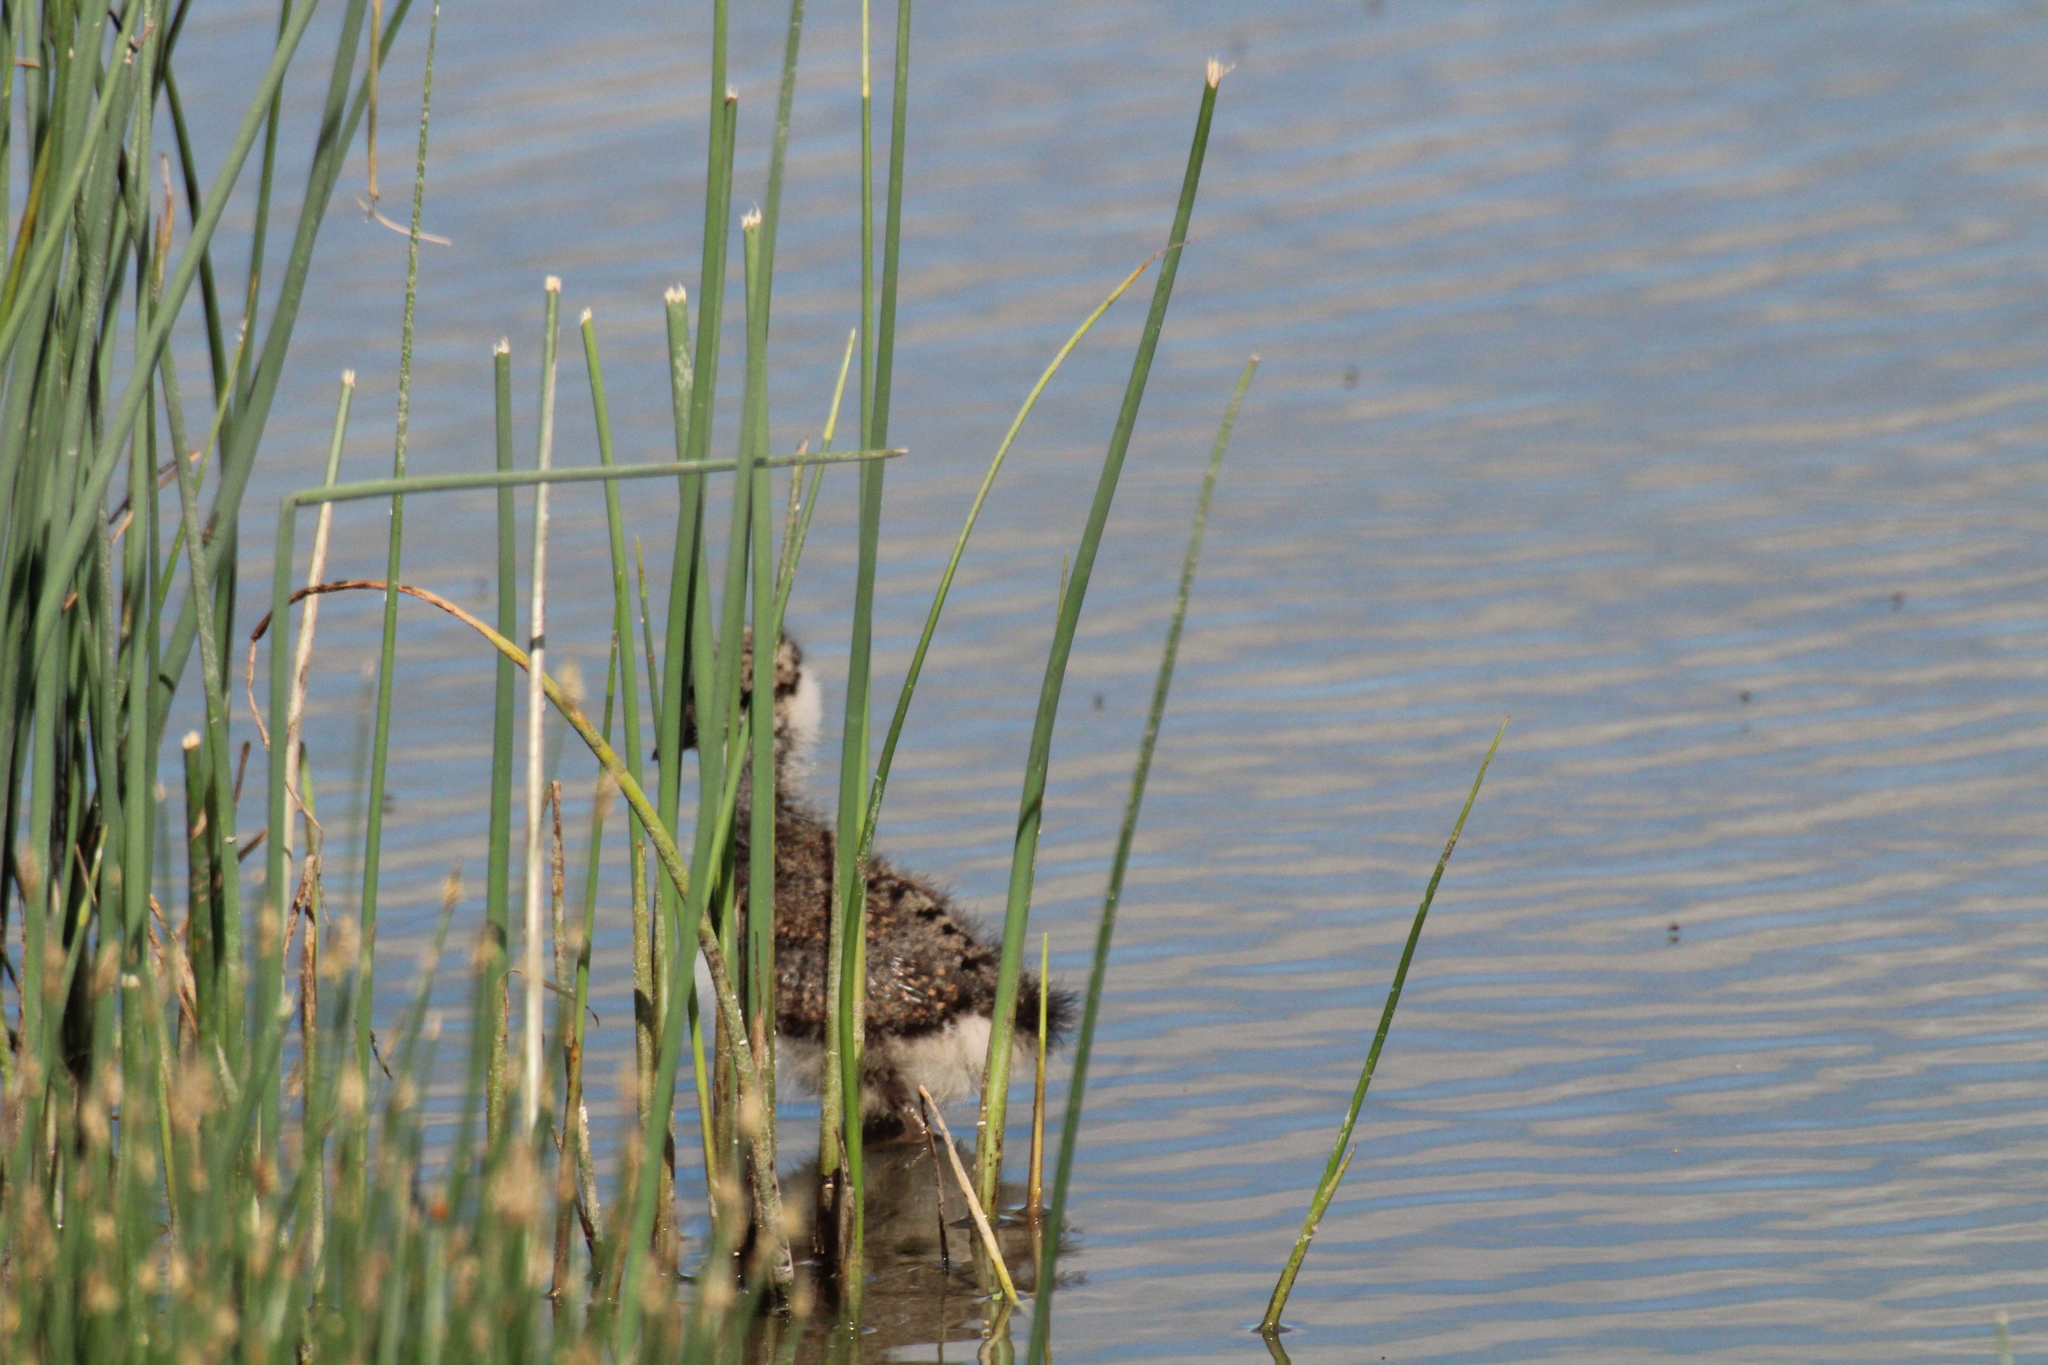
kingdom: Animalia
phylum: Chordata
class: Aves
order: Charadriiformes
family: Charadriidae
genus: Vanellus
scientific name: Vanellus vanellus
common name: Northern lapwing
